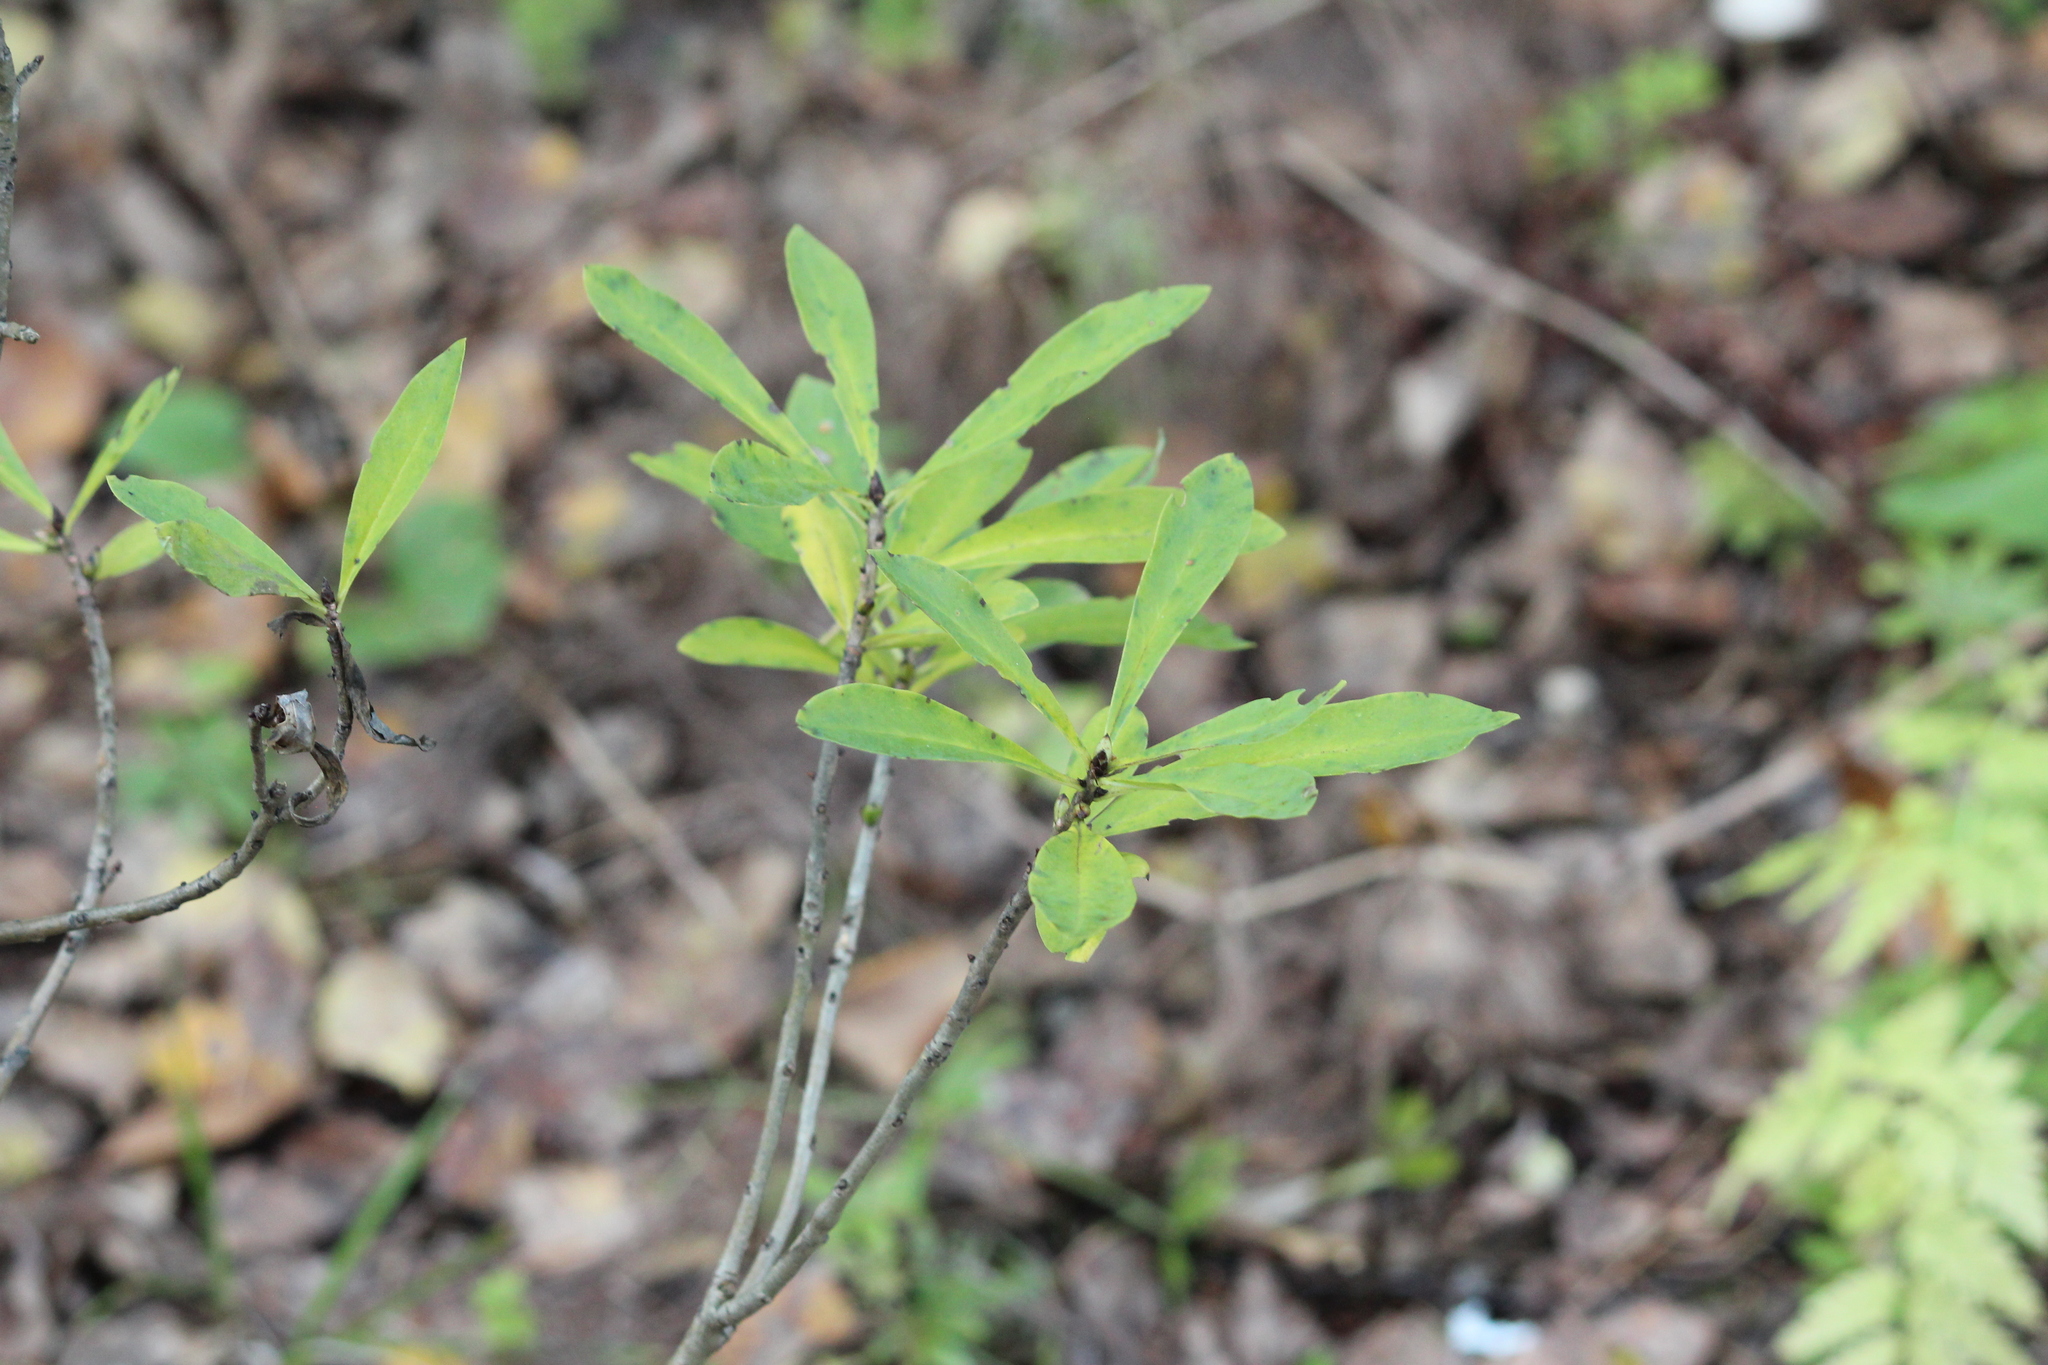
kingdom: Plantae
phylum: Tracheophyta
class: Magnoliopsida
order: Malvales
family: Thymelaeaceae
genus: Daphne
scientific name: Daphne mezereum
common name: Mezereon
